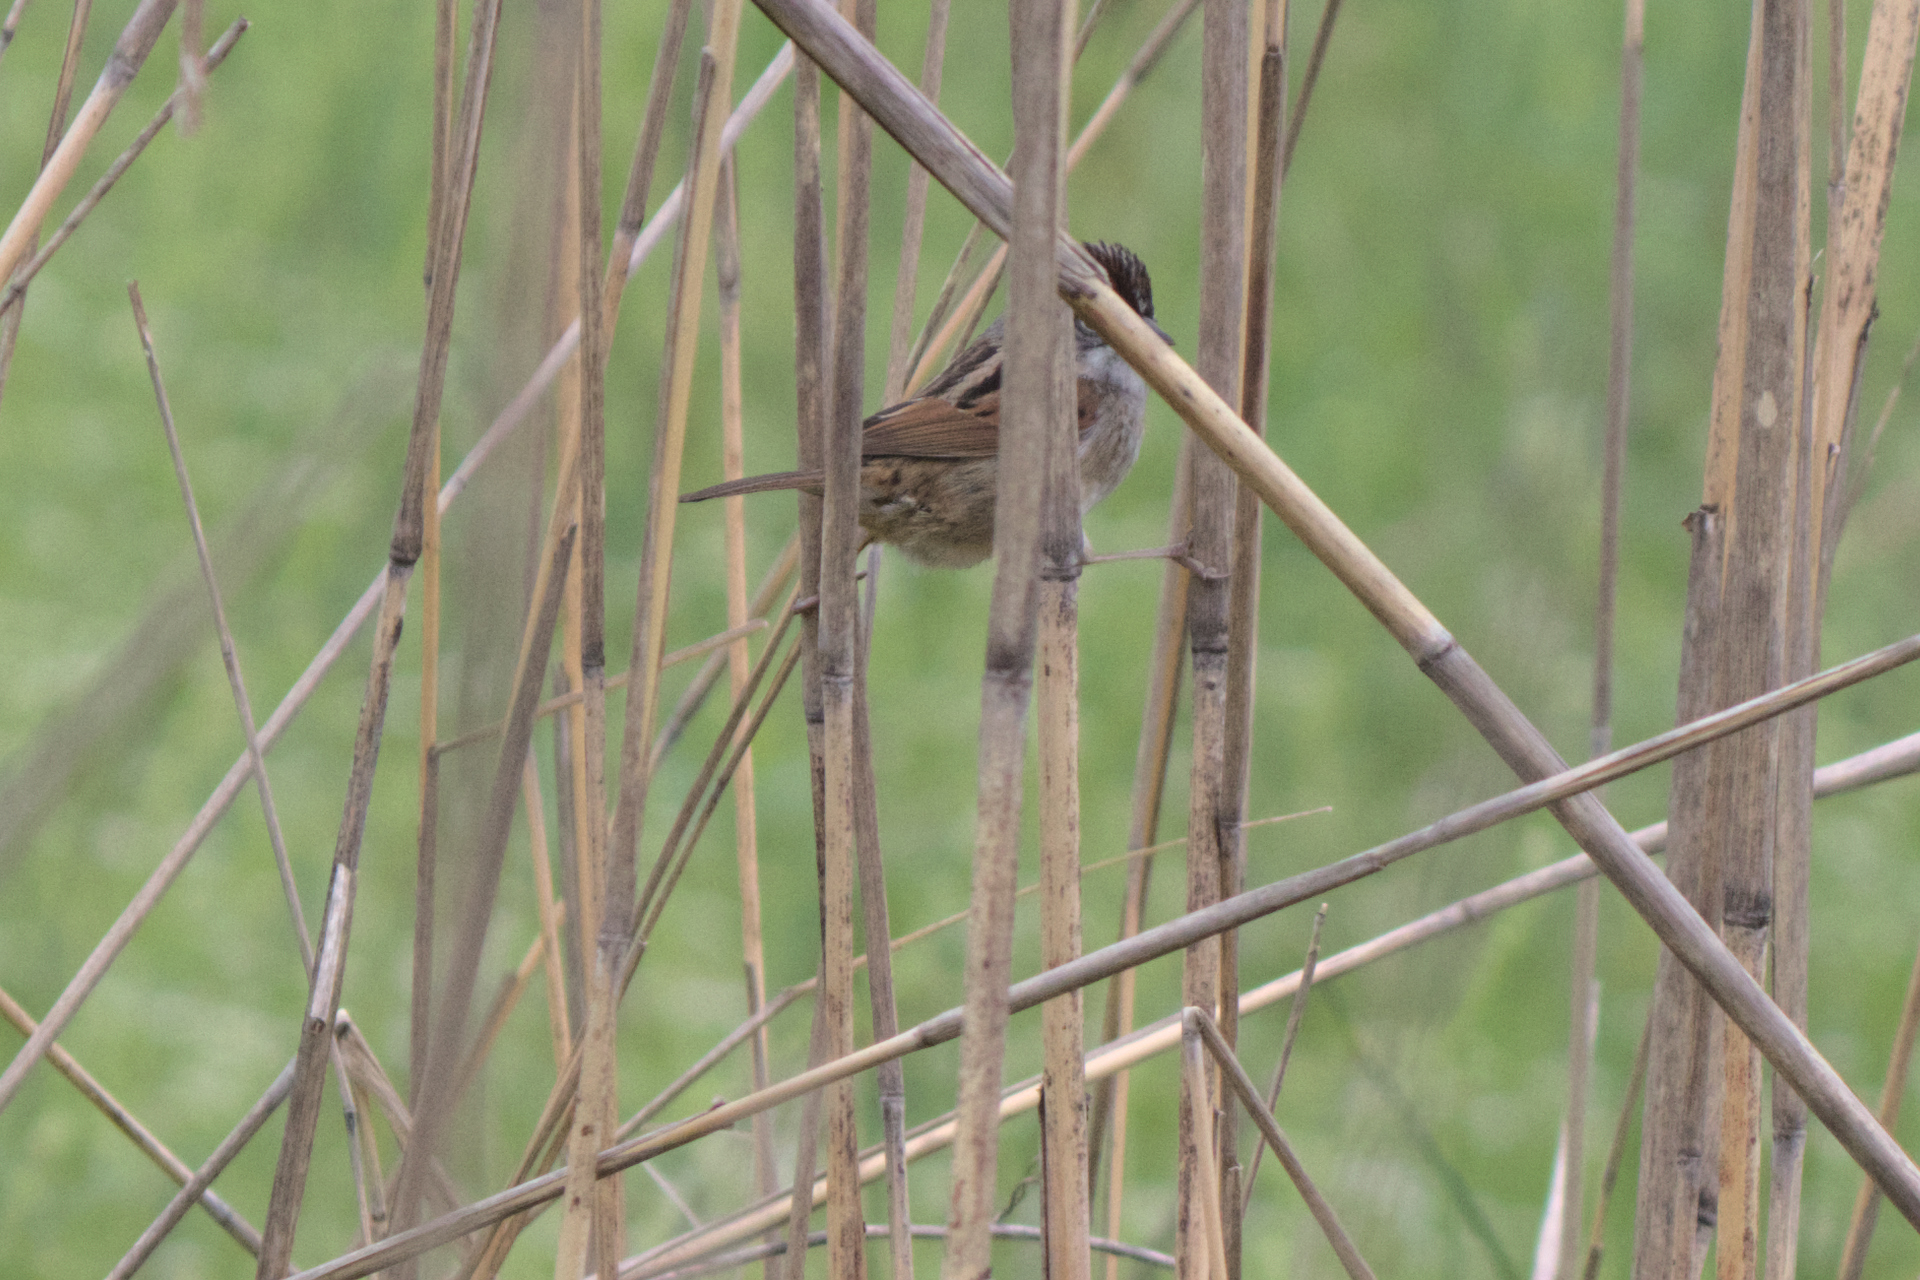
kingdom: Animalia
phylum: Chordata
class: Aves
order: Passeriformes
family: Passerellidae
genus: Melospiza
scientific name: Melospiza georgiana
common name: Swamp sparrow
